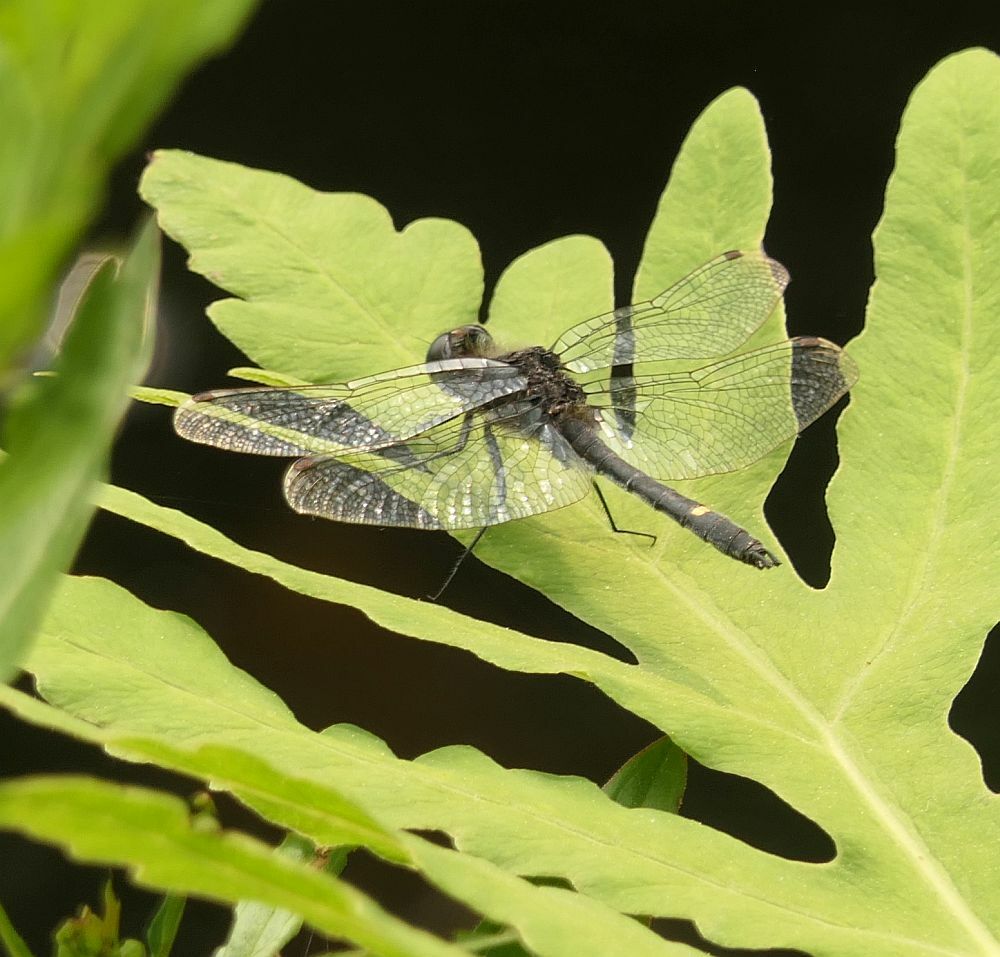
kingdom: Animalia
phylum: Arthropoda
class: Insecta
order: Odonata
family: Libellulidae
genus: Leucorrhinia
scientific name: Leucorrhinia intacta
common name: Dot-tailed whiteface
